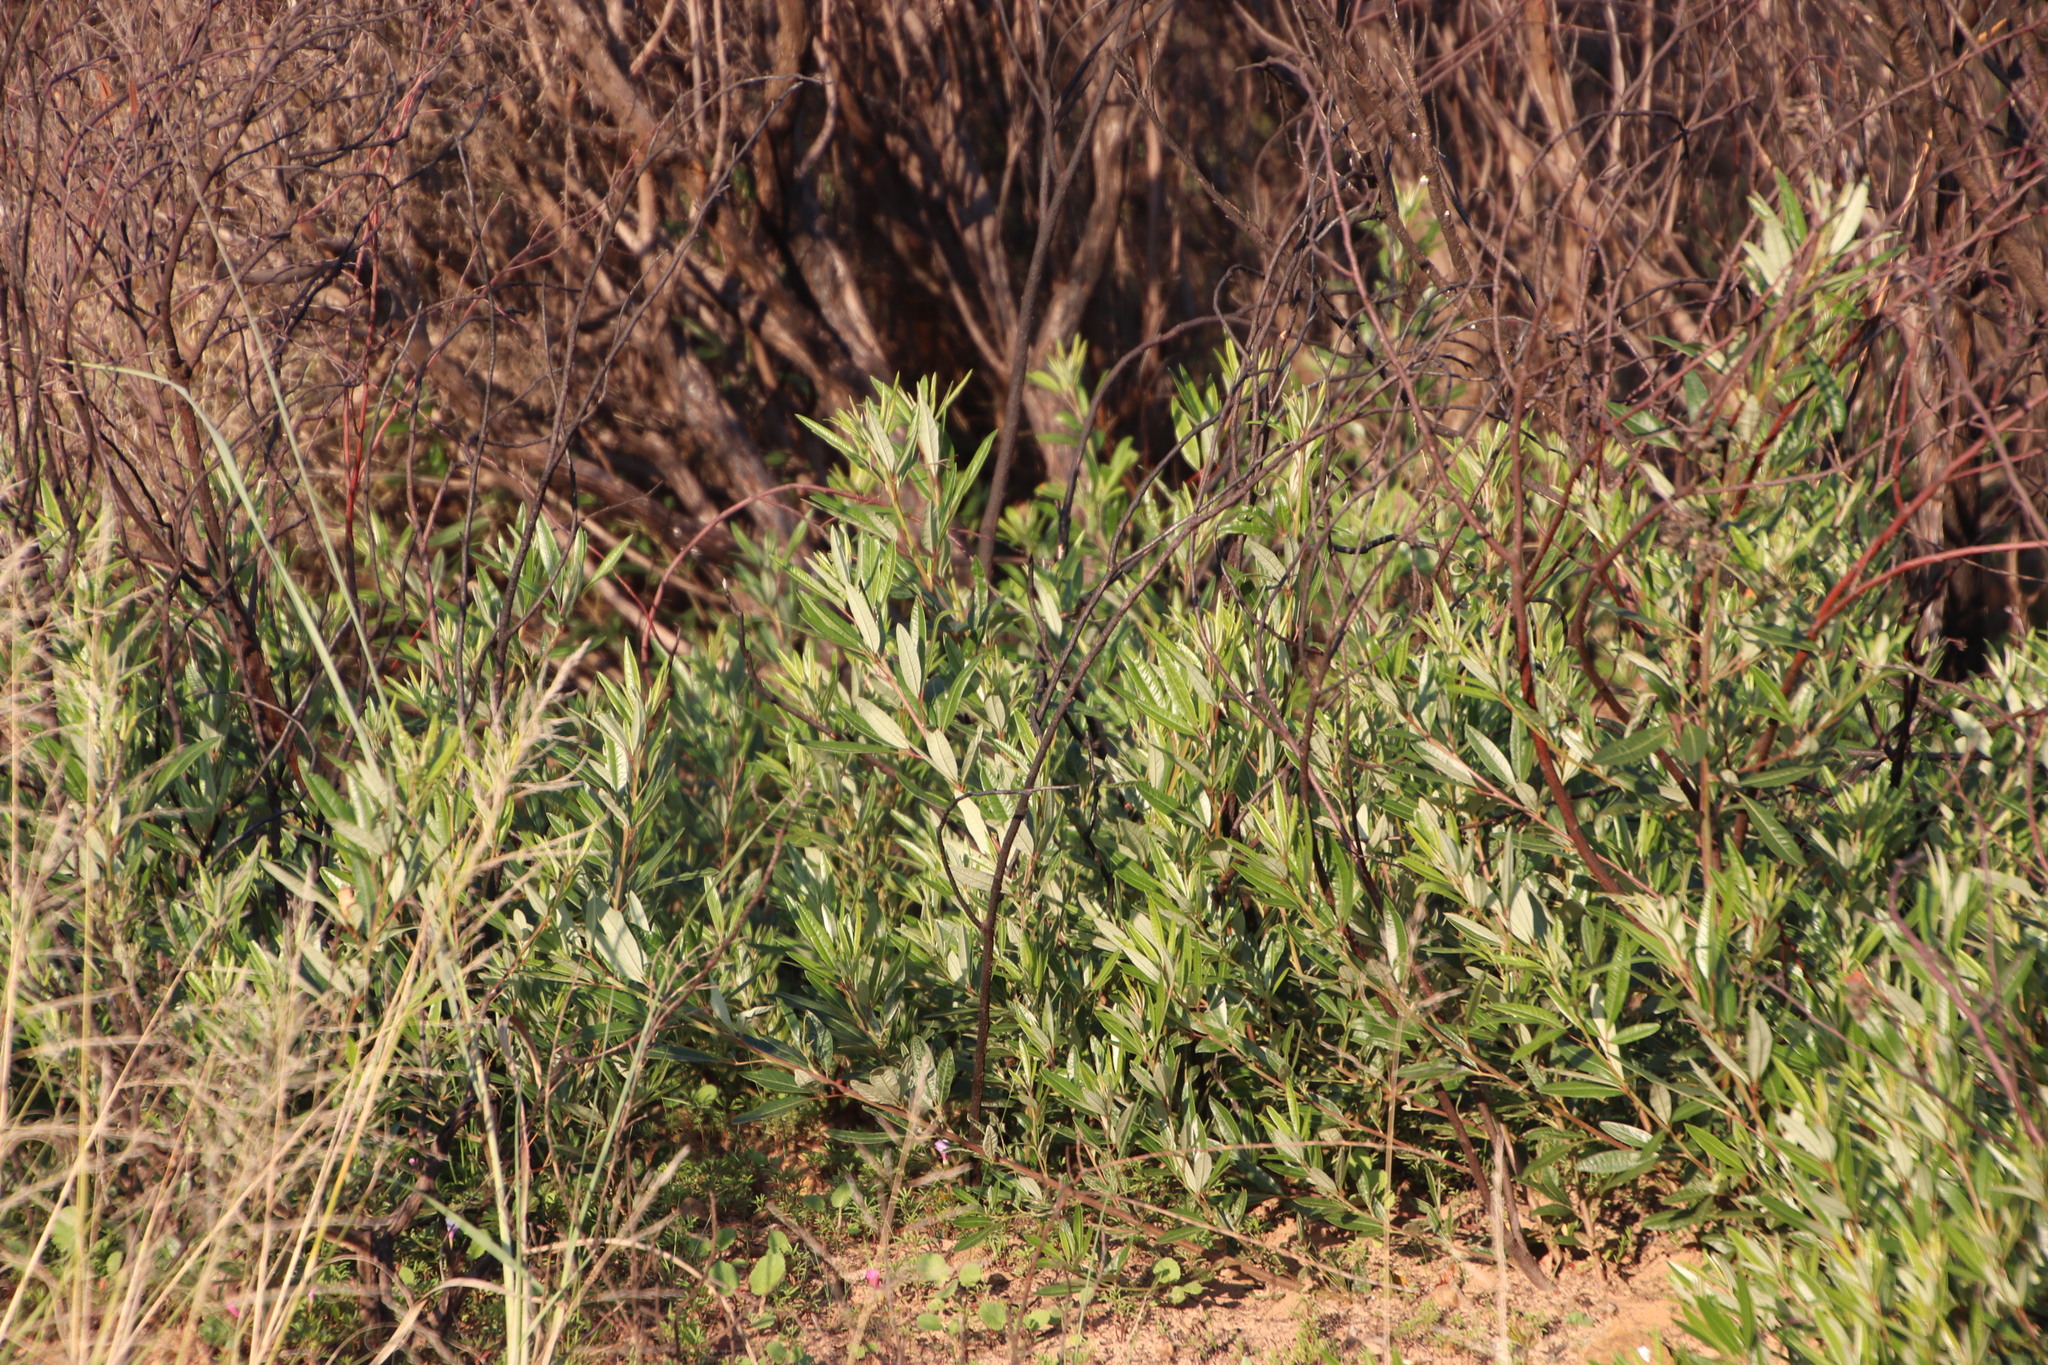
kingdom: Plantae
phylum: Tracheophyta
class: Magnoliopsida
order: Sapindales
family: Anacardiaceae
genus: Searsia
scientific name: Searsia angustifolia
